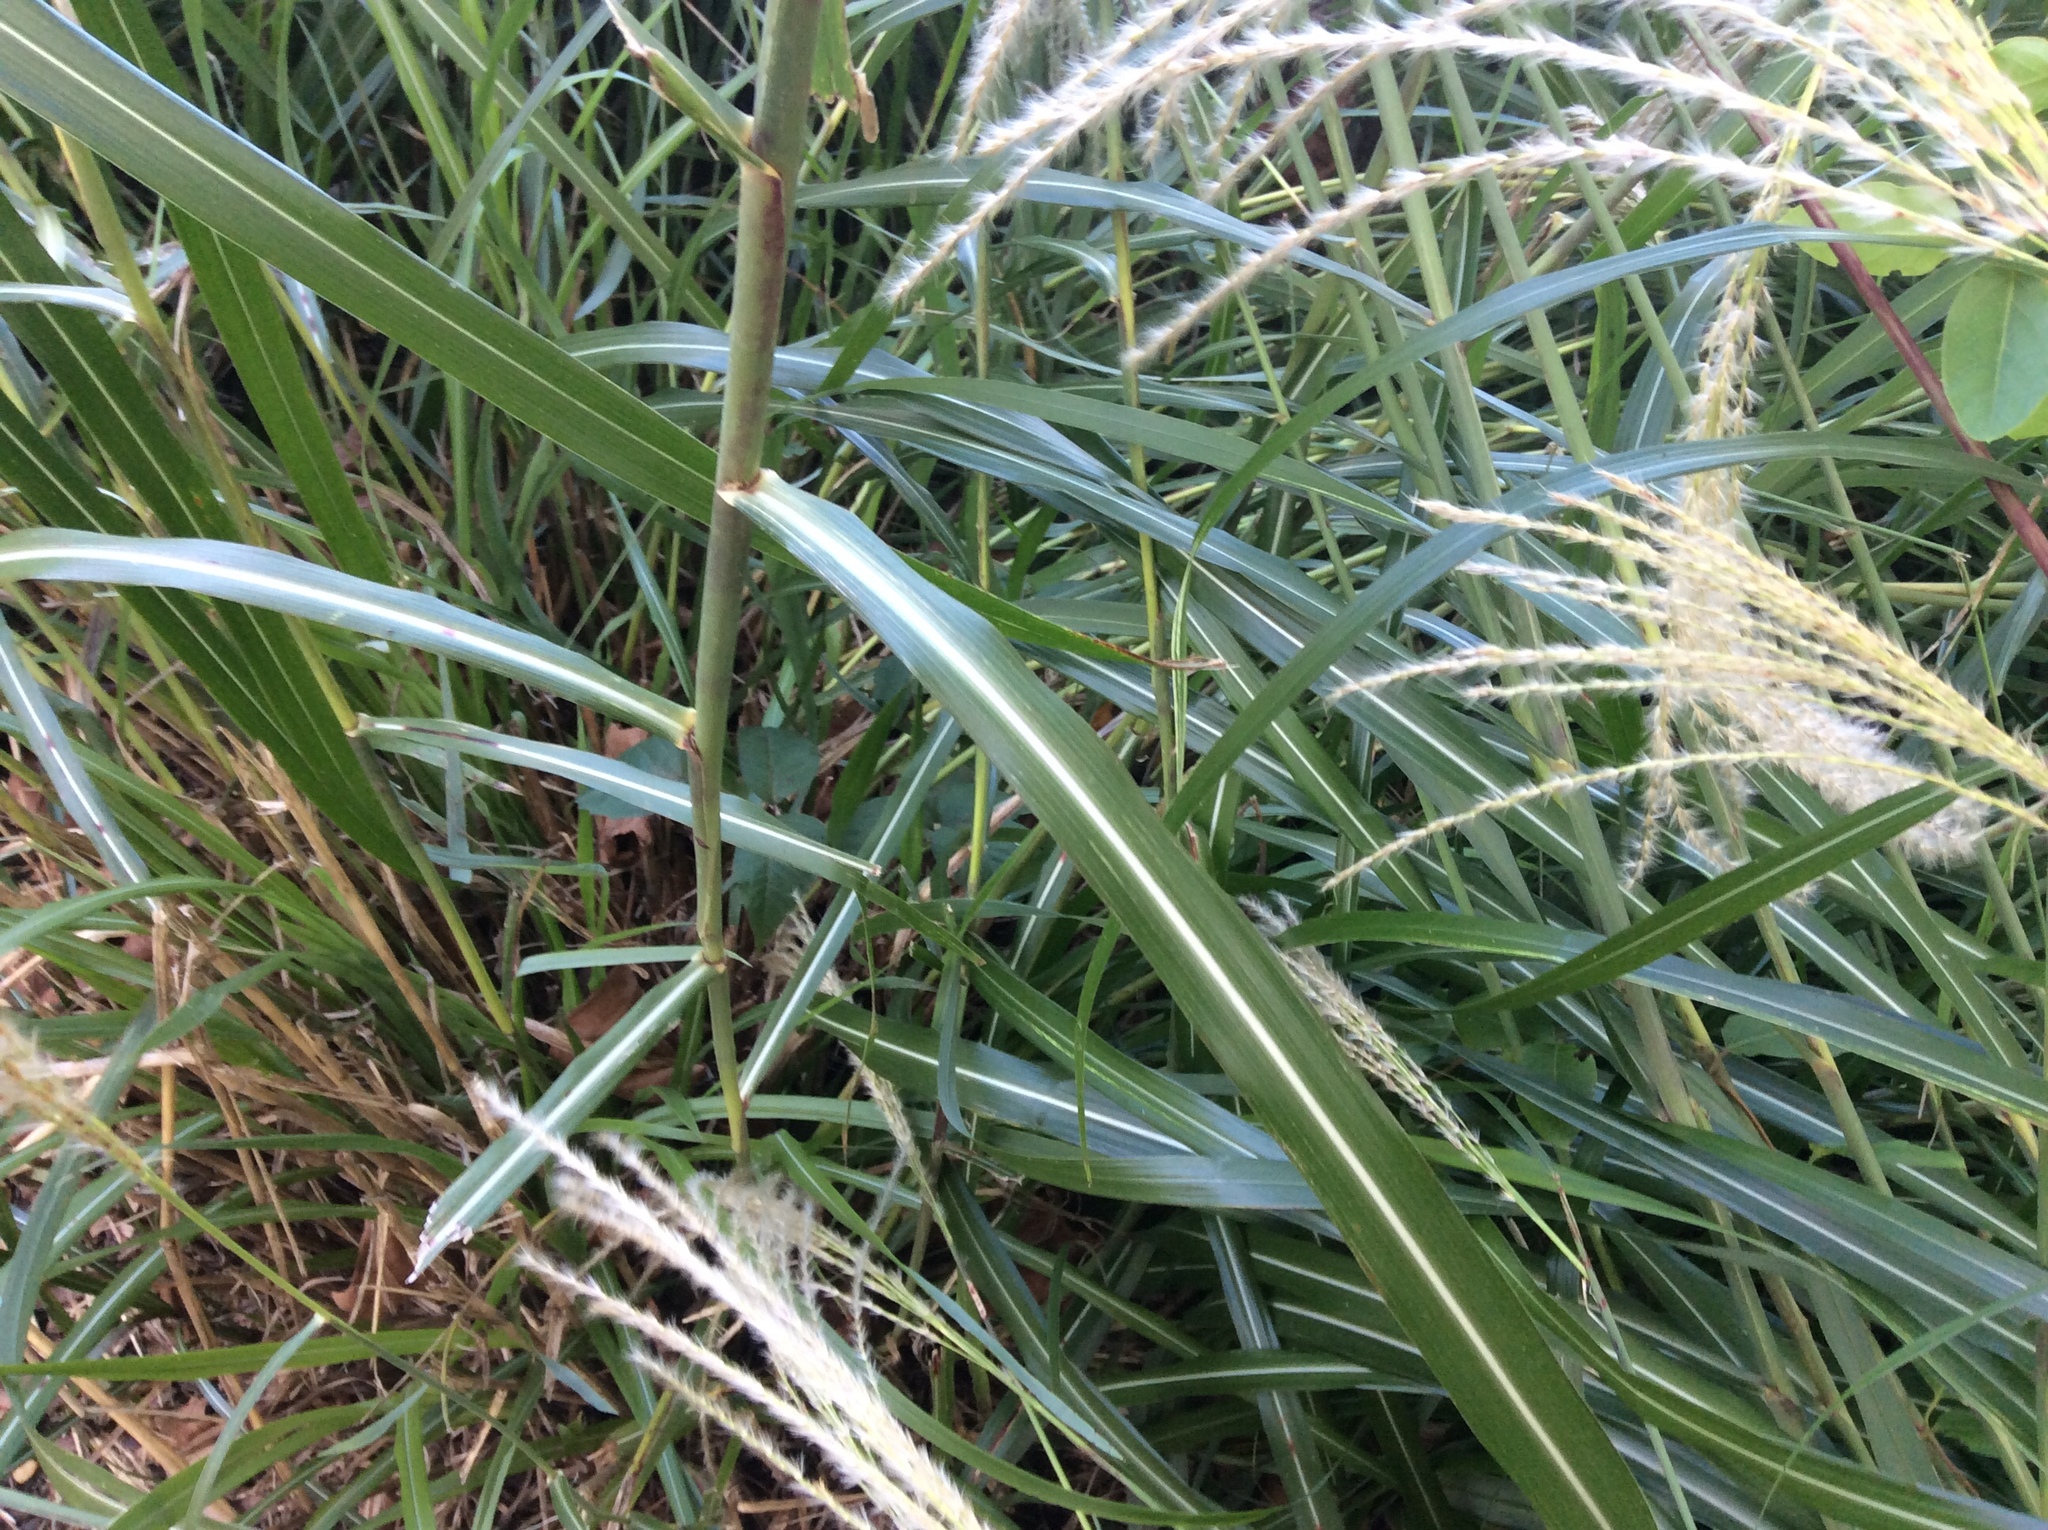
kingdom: Plantae
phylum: Tracheophyta
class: Liliopsida
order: Poales
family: Poaceae
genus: Miscanthus
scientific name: Miscanthus sinensis
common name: Chinese silvergrass
